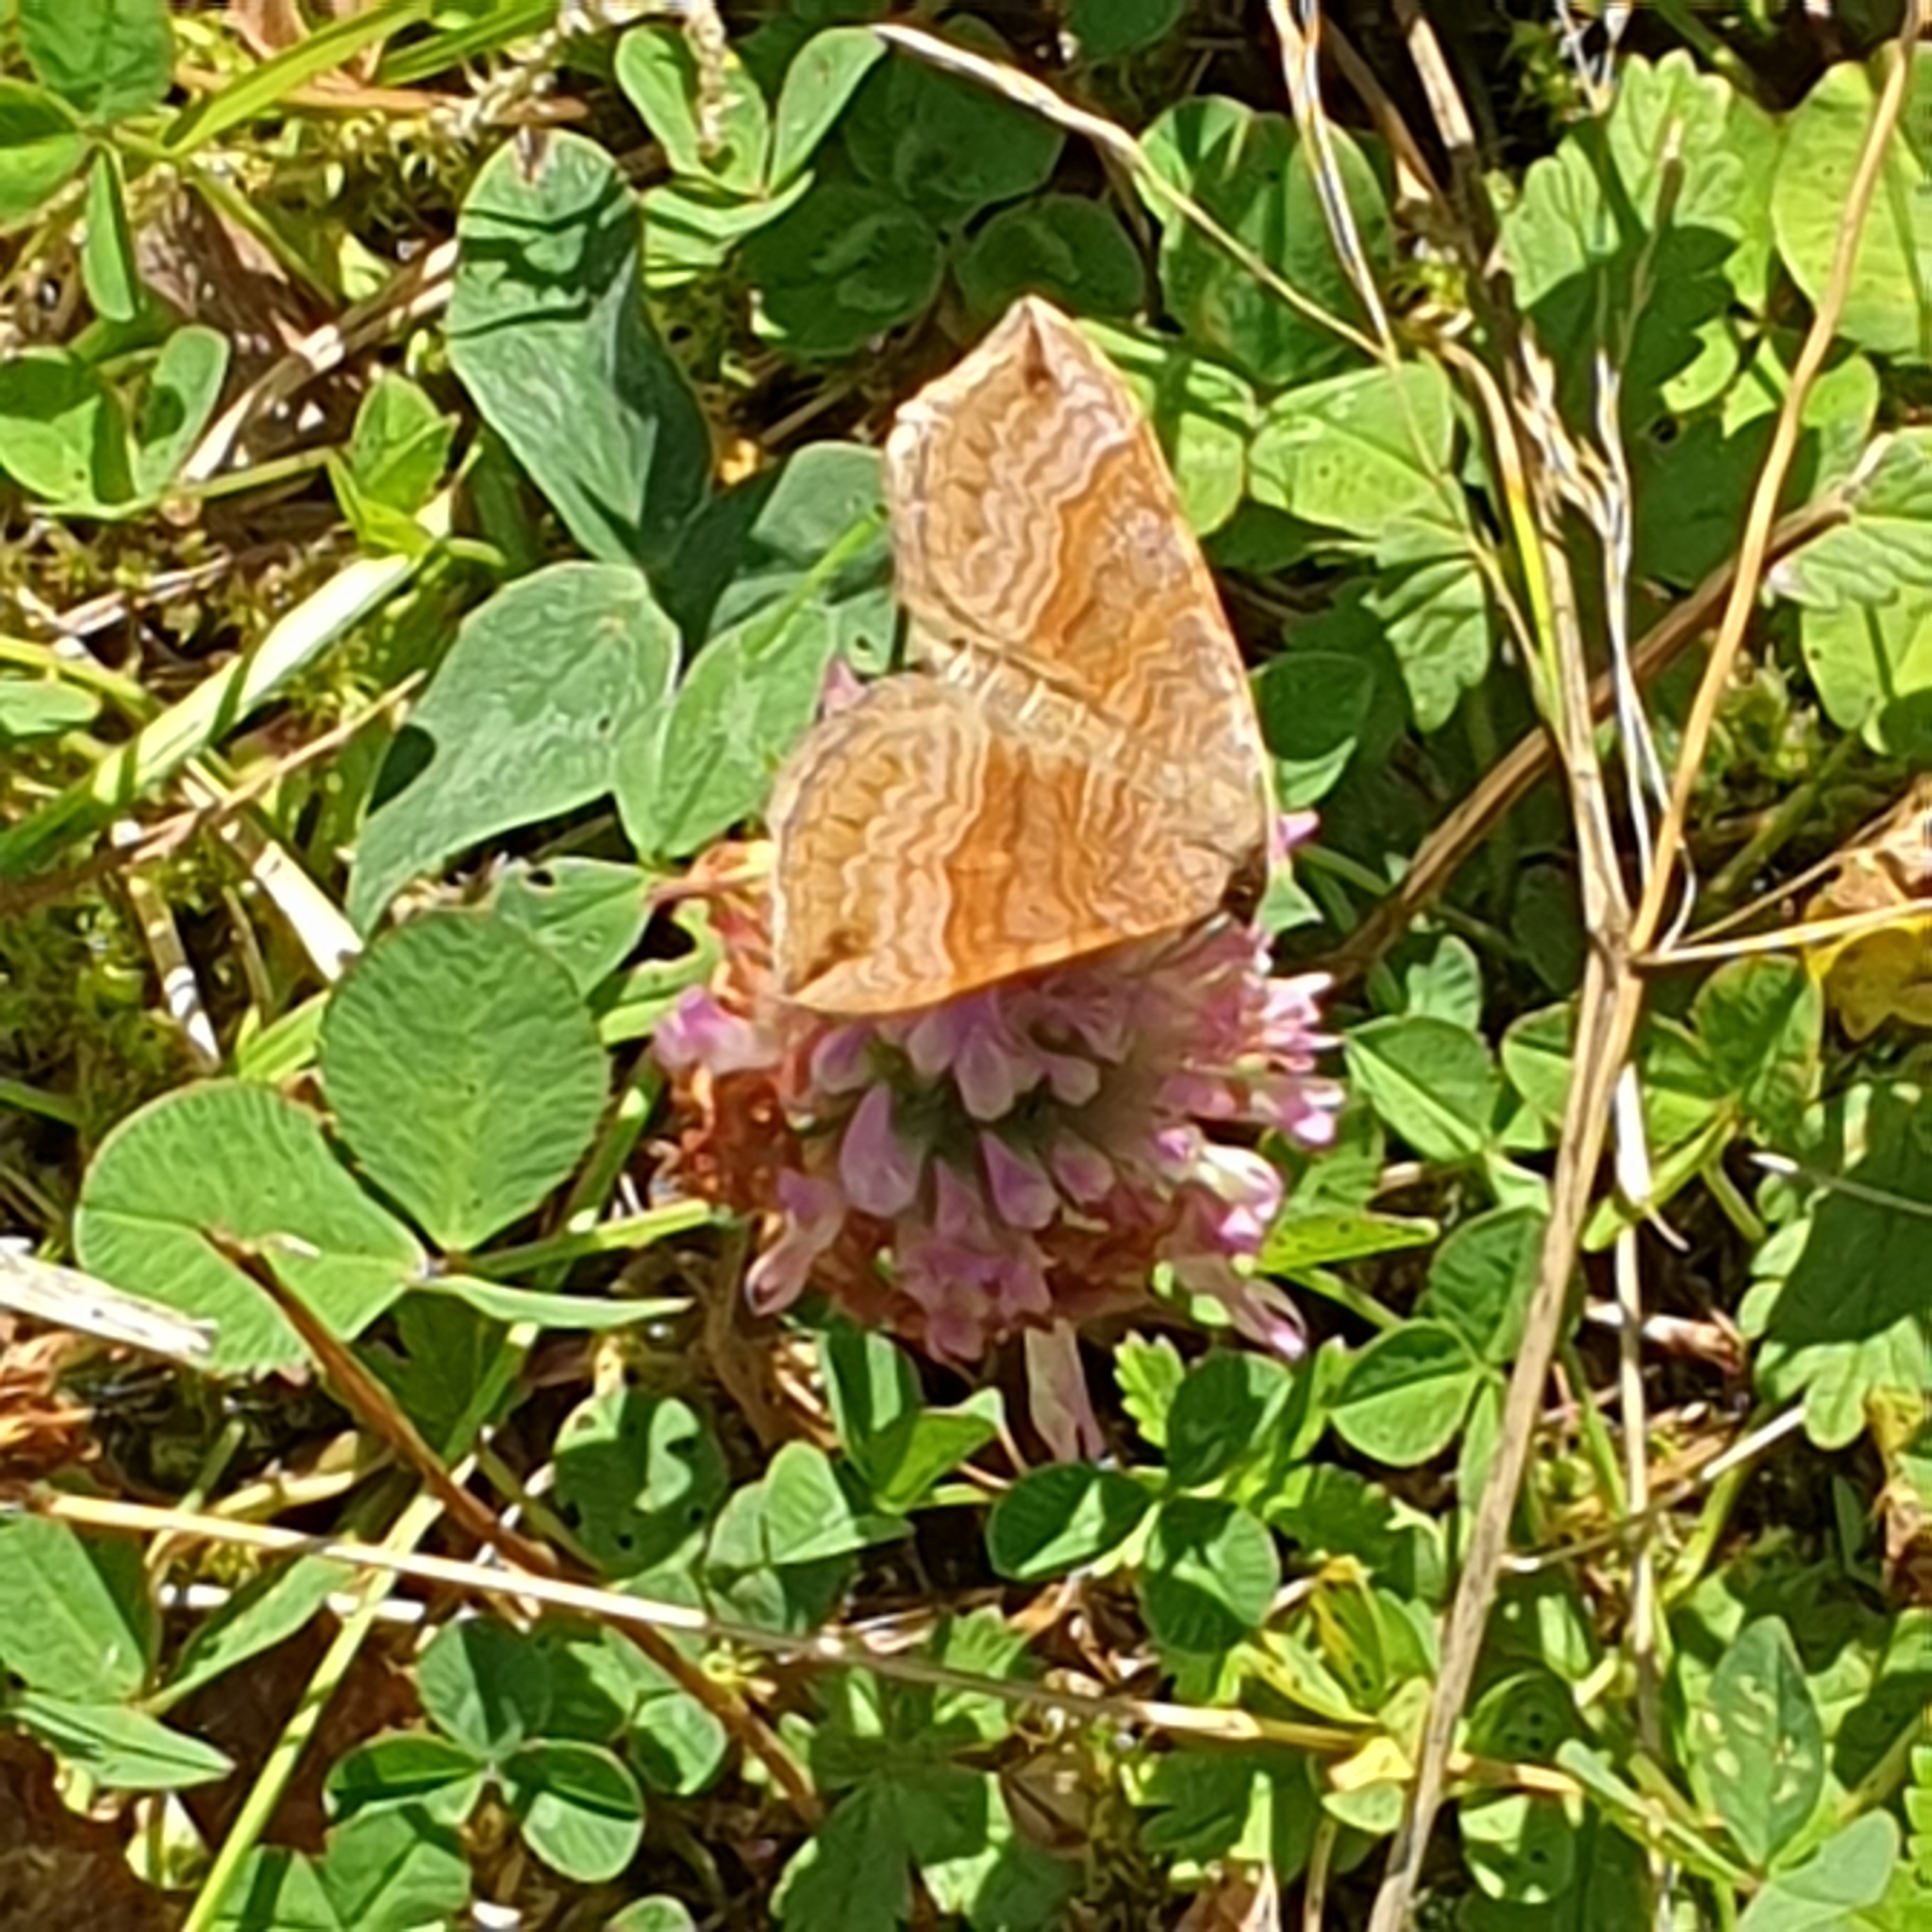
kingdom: Animalia
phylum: Arthropoda
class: Insecta
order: Lepidoptera
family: Geometridae
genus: Scotopteryx
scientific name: Scotopteryx chenopodiata
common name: Shaded broad-bar
